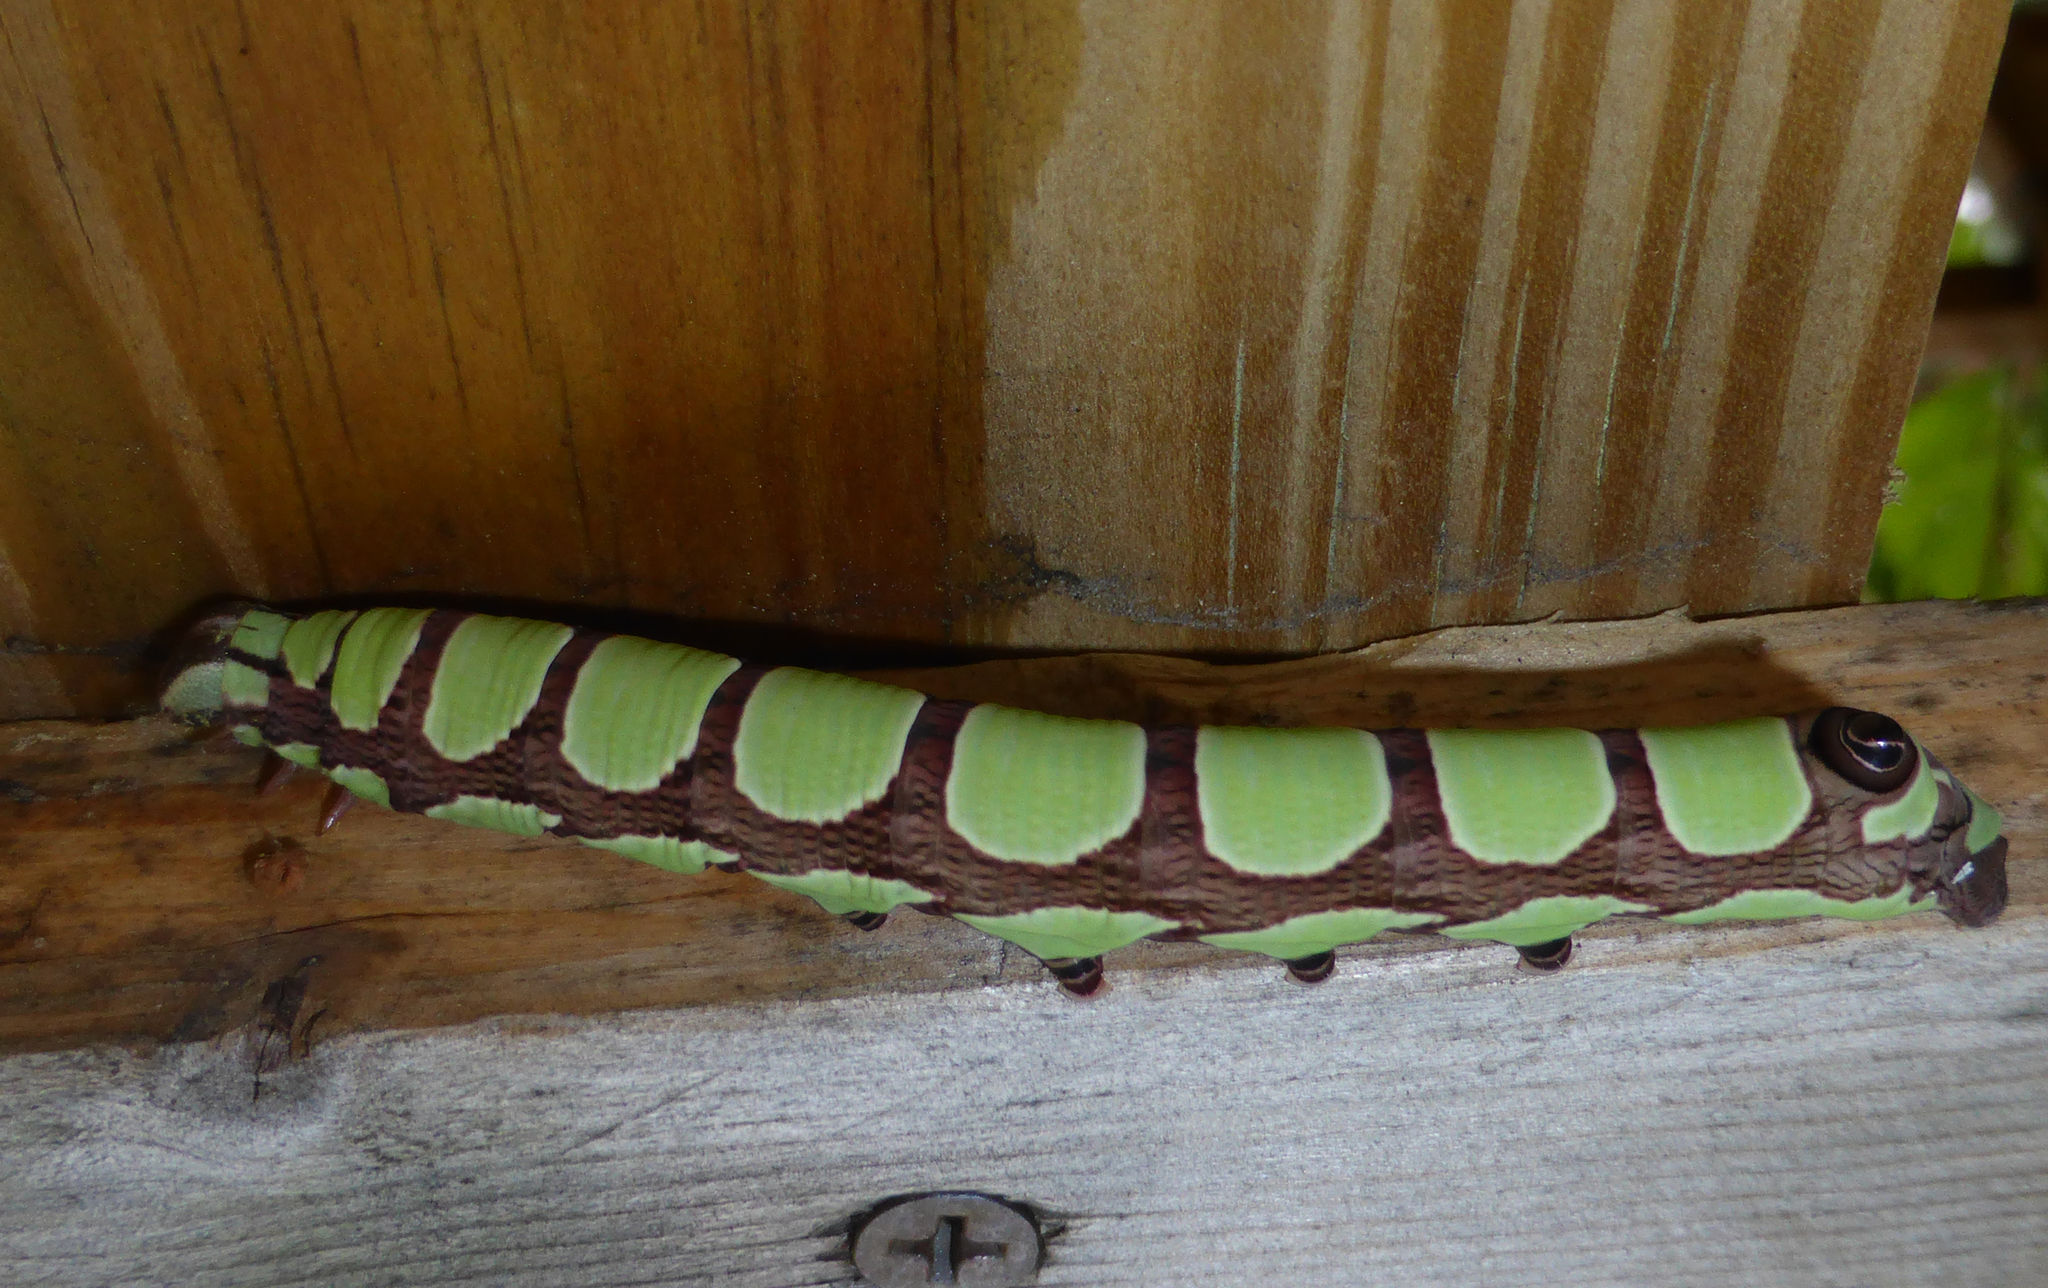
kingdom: Animalia
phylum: Arthropoda
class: Insecta
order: Lepidoptera
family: Sphingidae
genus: Sphecodina
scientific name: Sphecodina abbottii
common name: Abbott's sphinx
